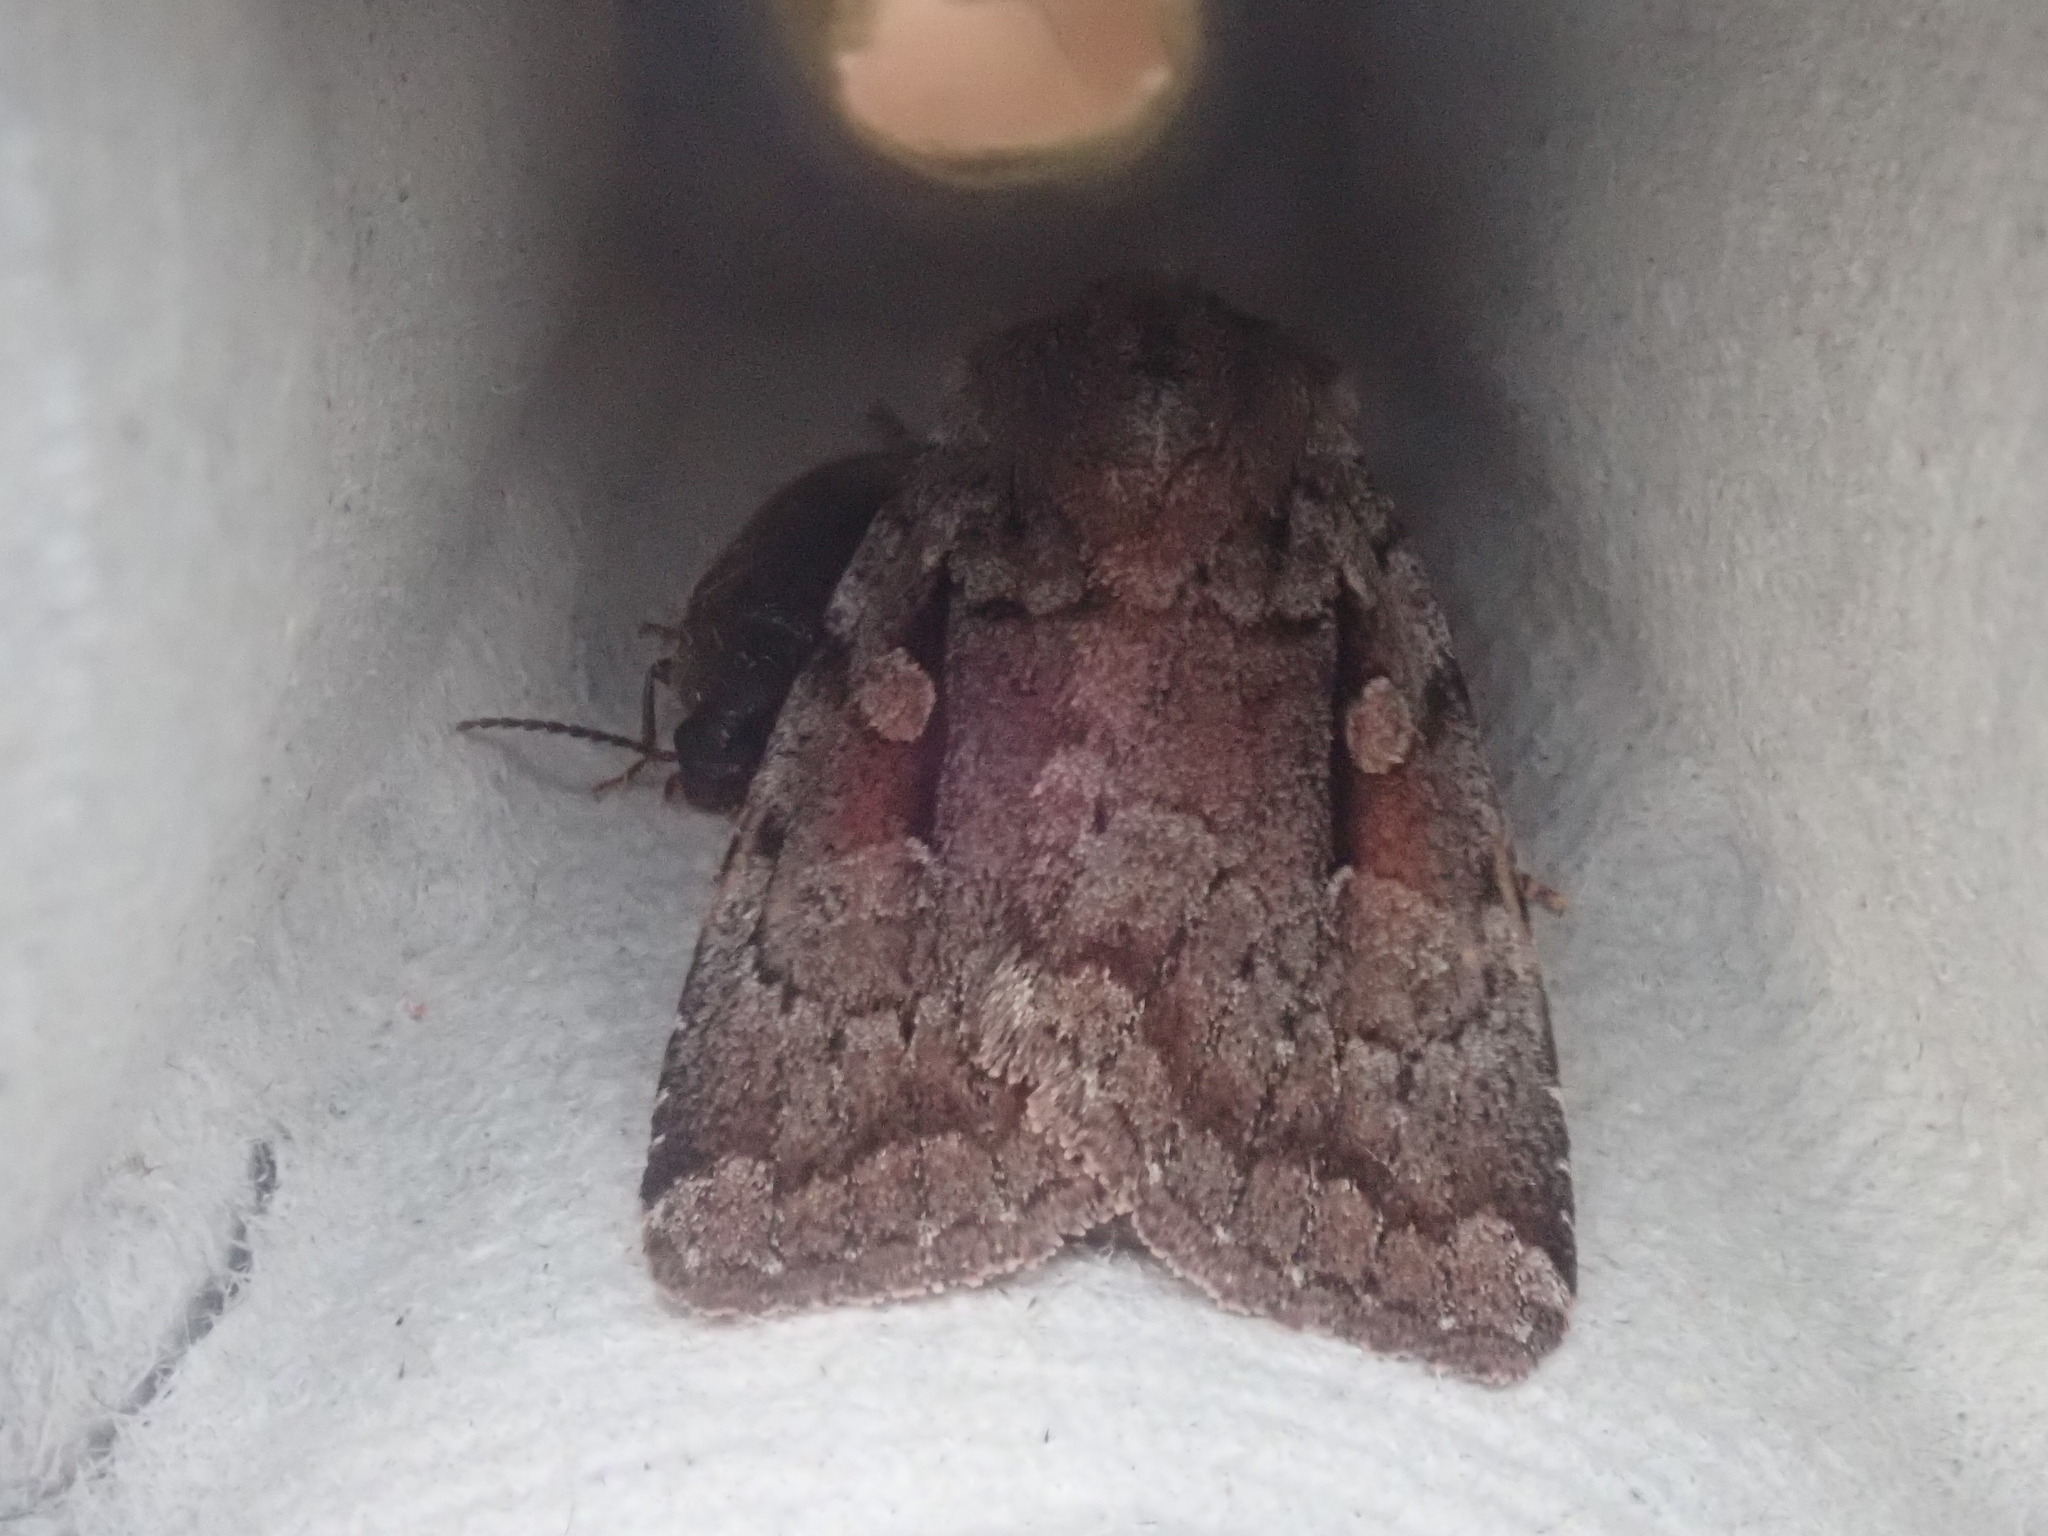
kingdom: Animalia
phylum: Arthropoda
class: Insecta
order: Lepidoptera
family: Noctuidae
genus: Xestia
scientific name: Xestia badicollis
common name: Northern variable dart
